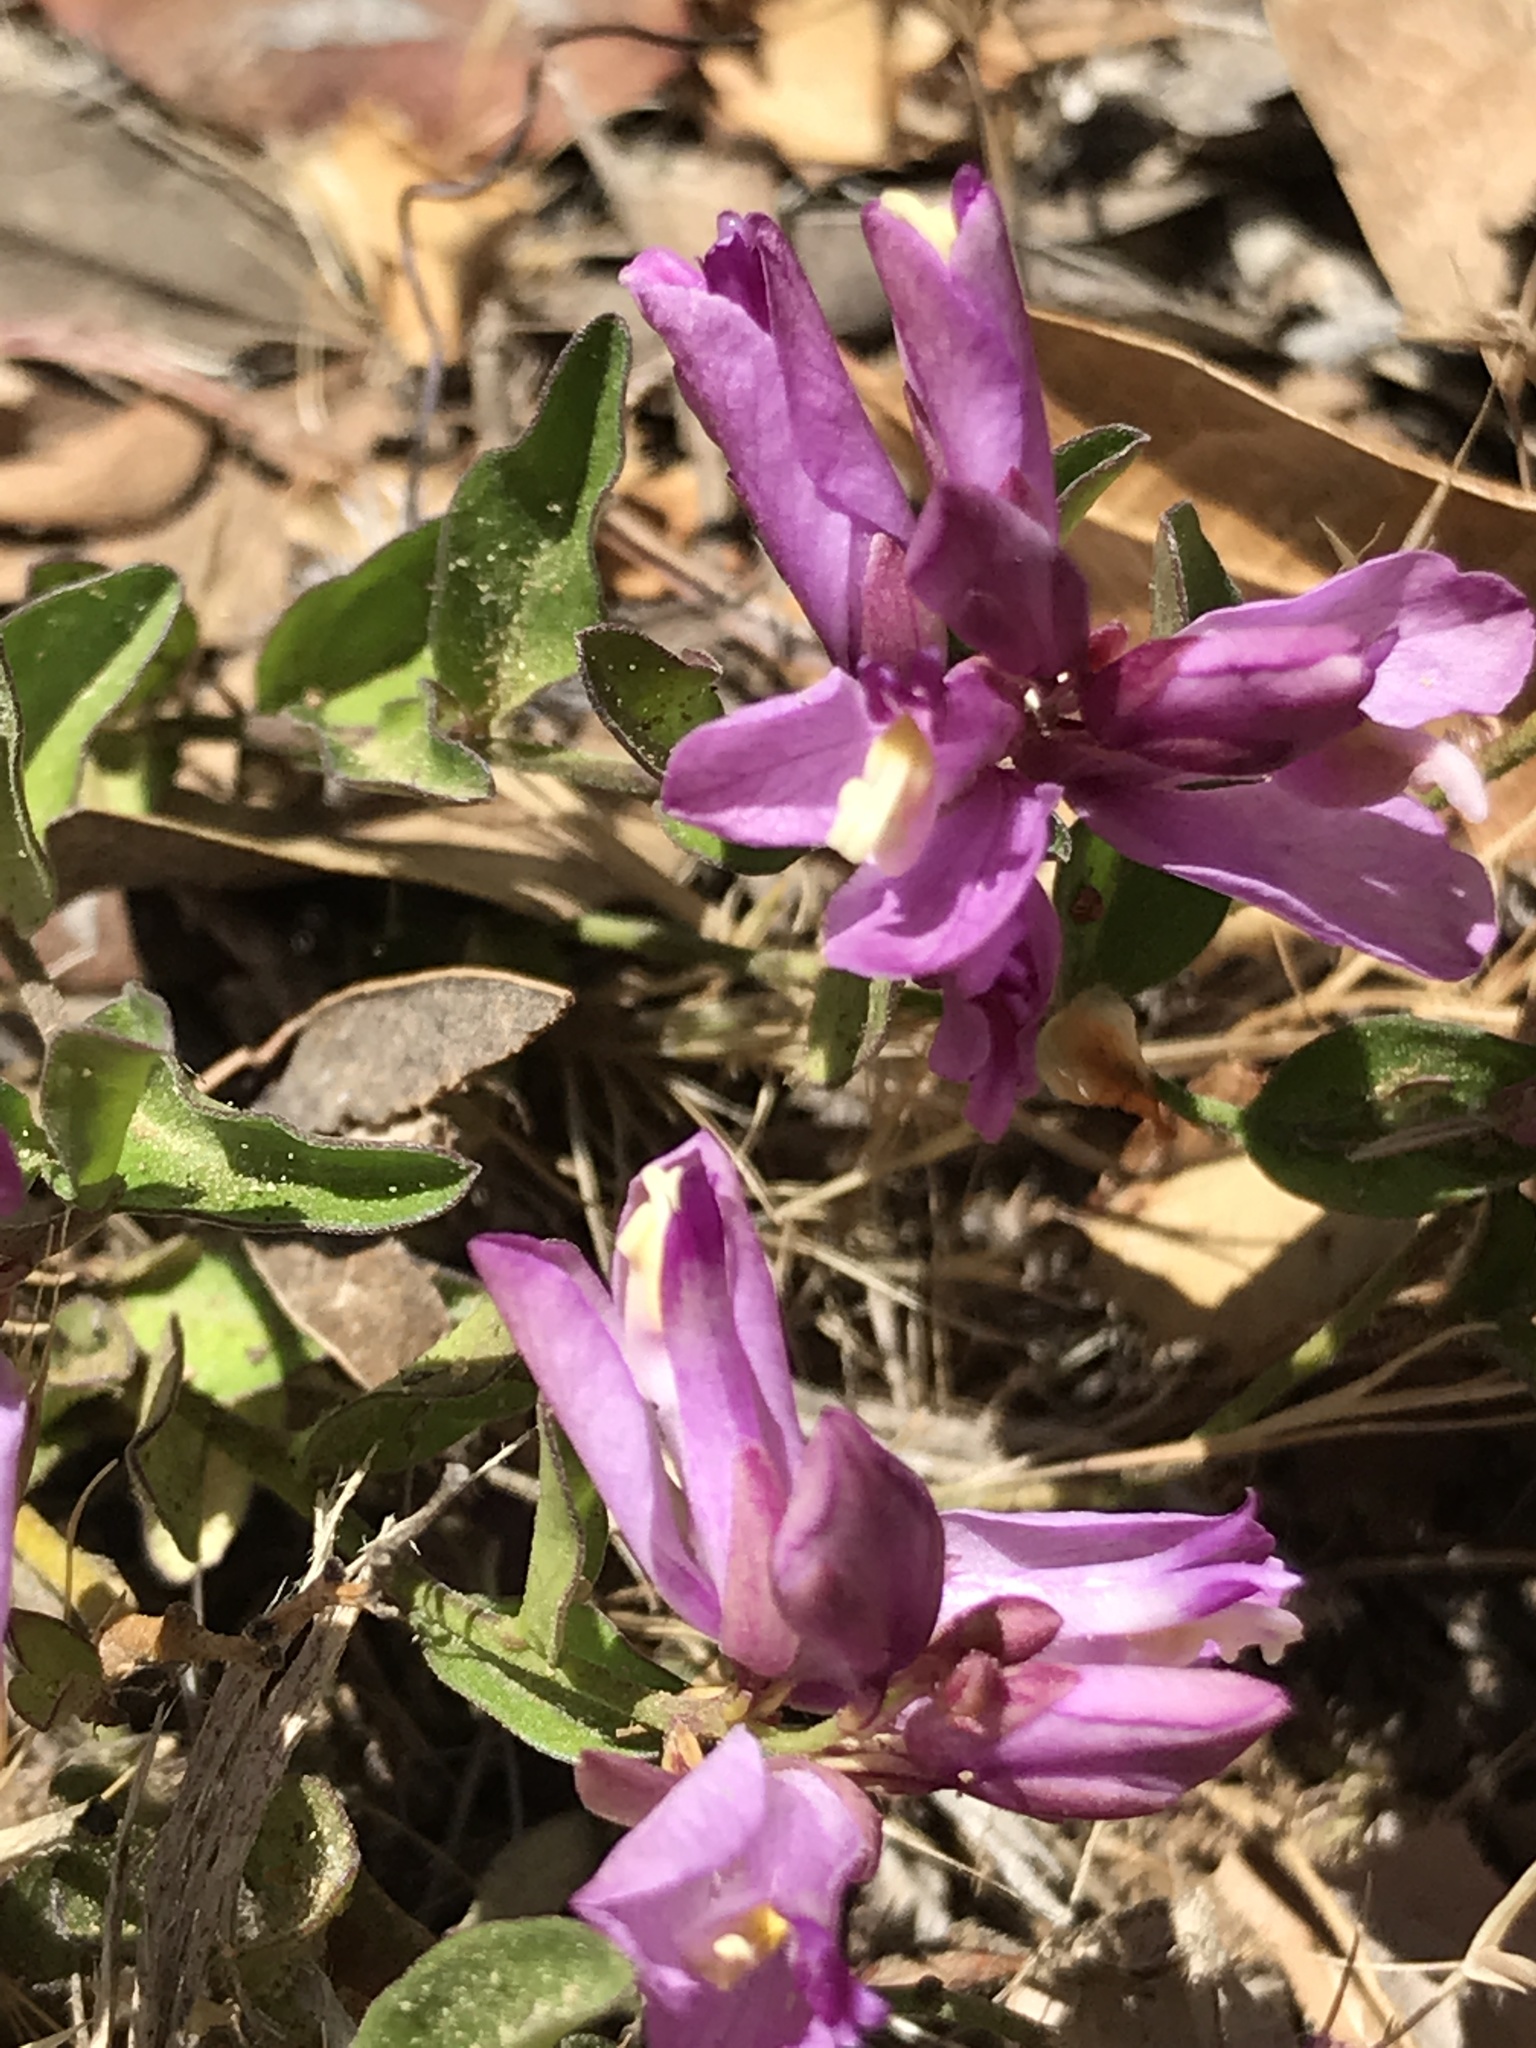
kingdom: Plantae
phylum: Tracheophyta
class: Magnoliopsida
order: Fabales
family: Polygalaceae
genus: Rhinotropis
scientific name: Rhinotropis californica
